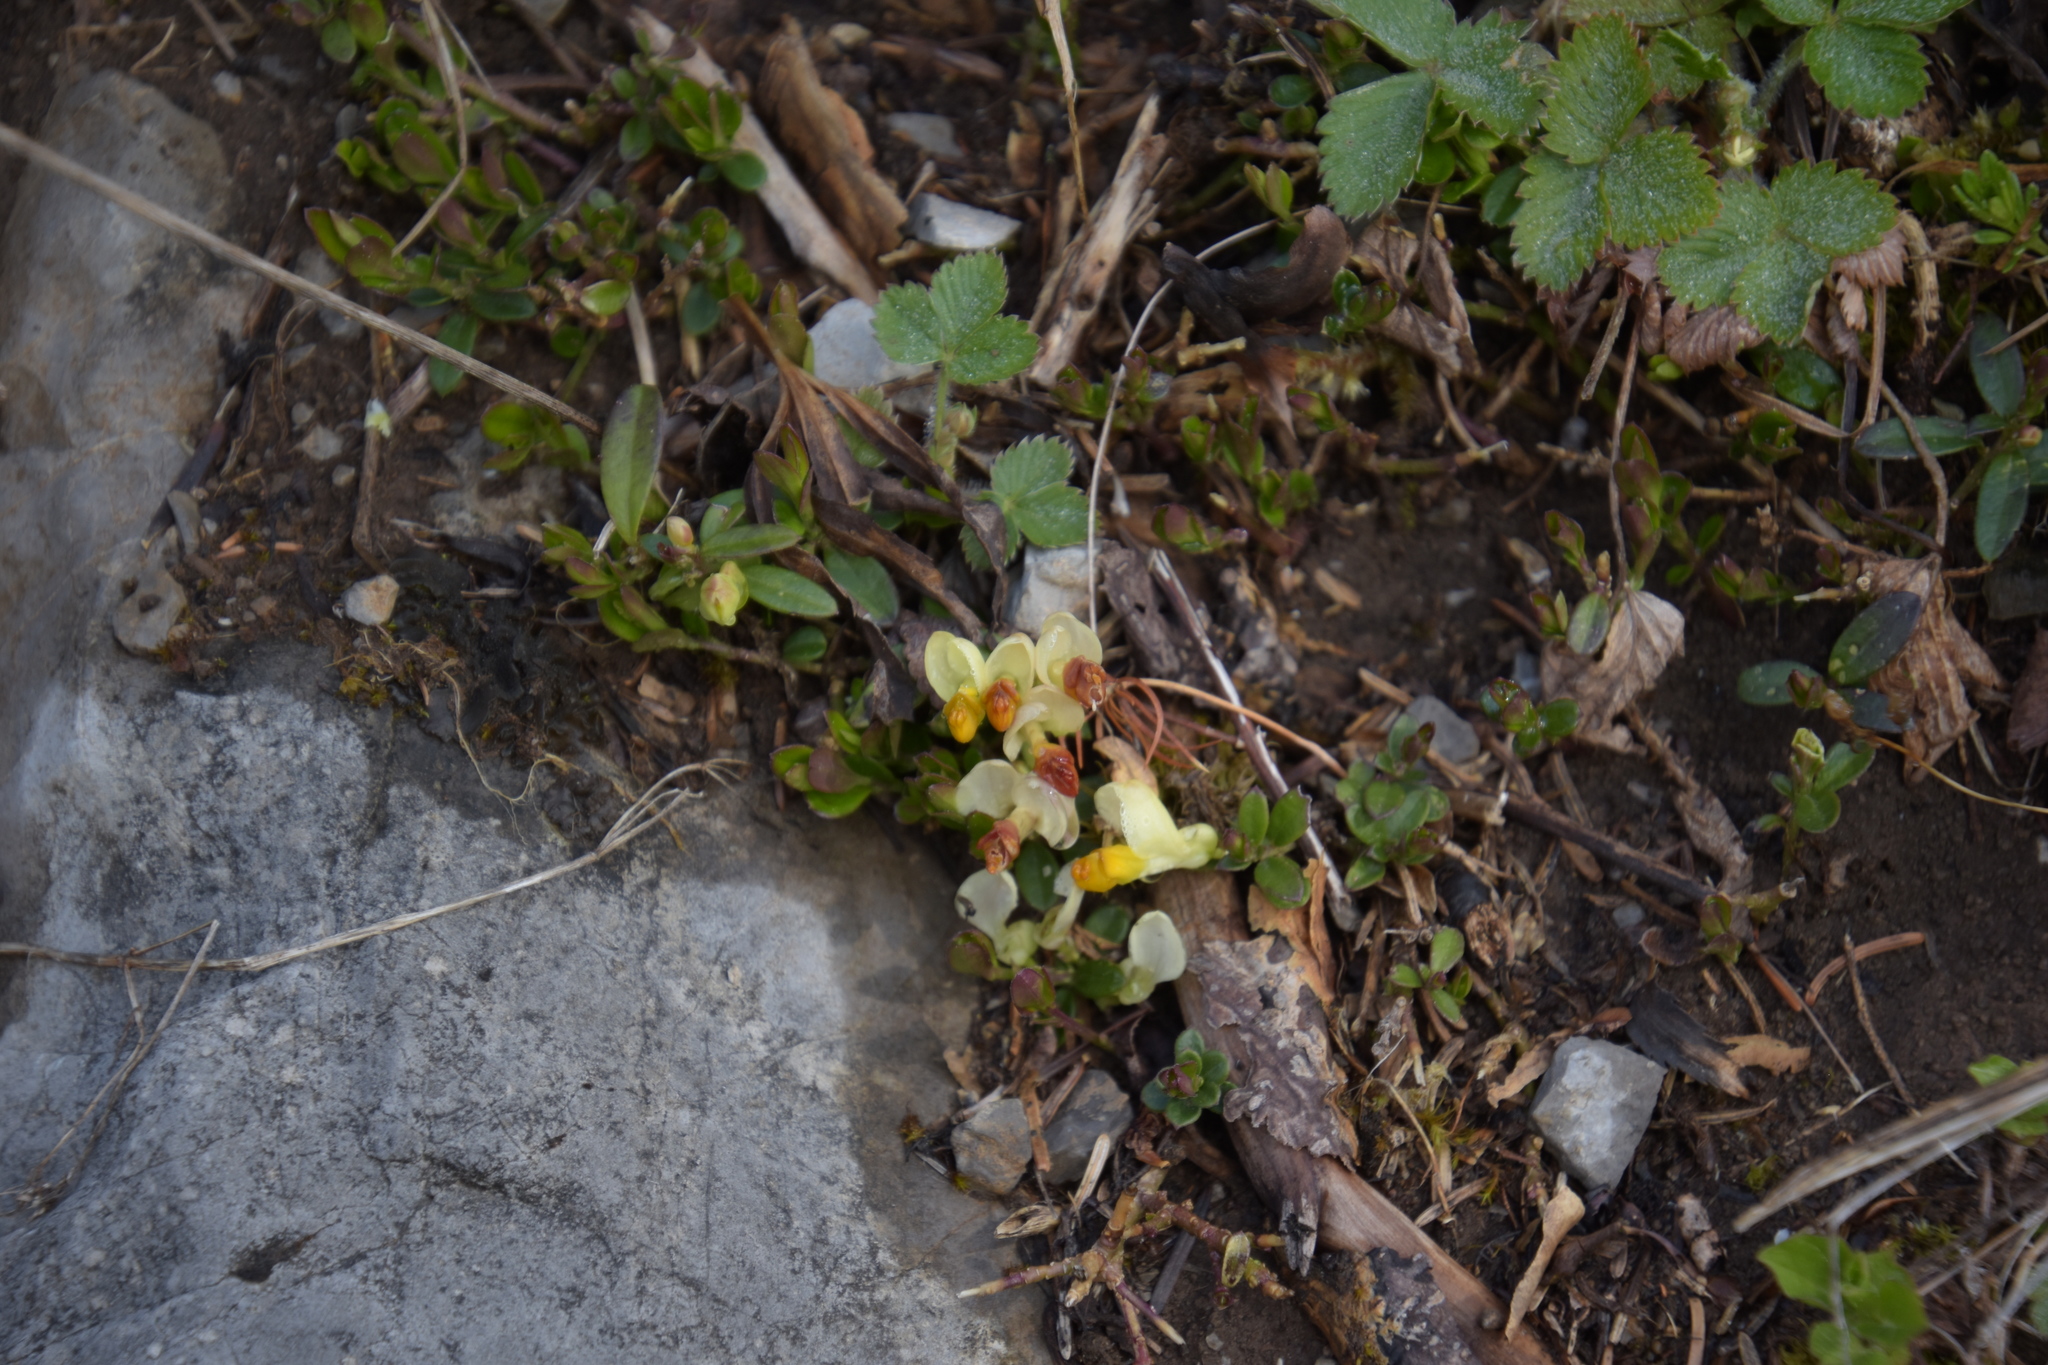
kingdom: Plantae
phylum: Tracheophyta
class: Magnoliopsida
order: Fabales
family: Polygalaceae
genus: Polygaloides
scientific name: Polygaloides chamaebuxus
